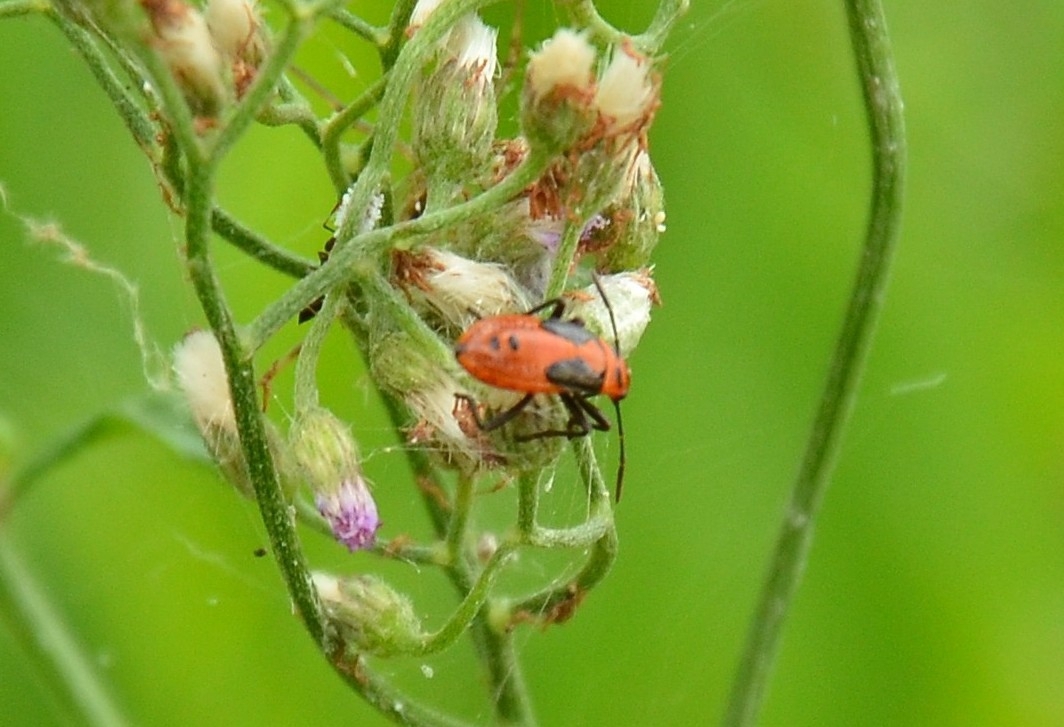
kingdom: Animalia
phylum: Arthropoda
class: Insecta
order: Hemiptera
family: Lygaeidae
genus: Spilostethus
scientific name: Spilostethus hospes
